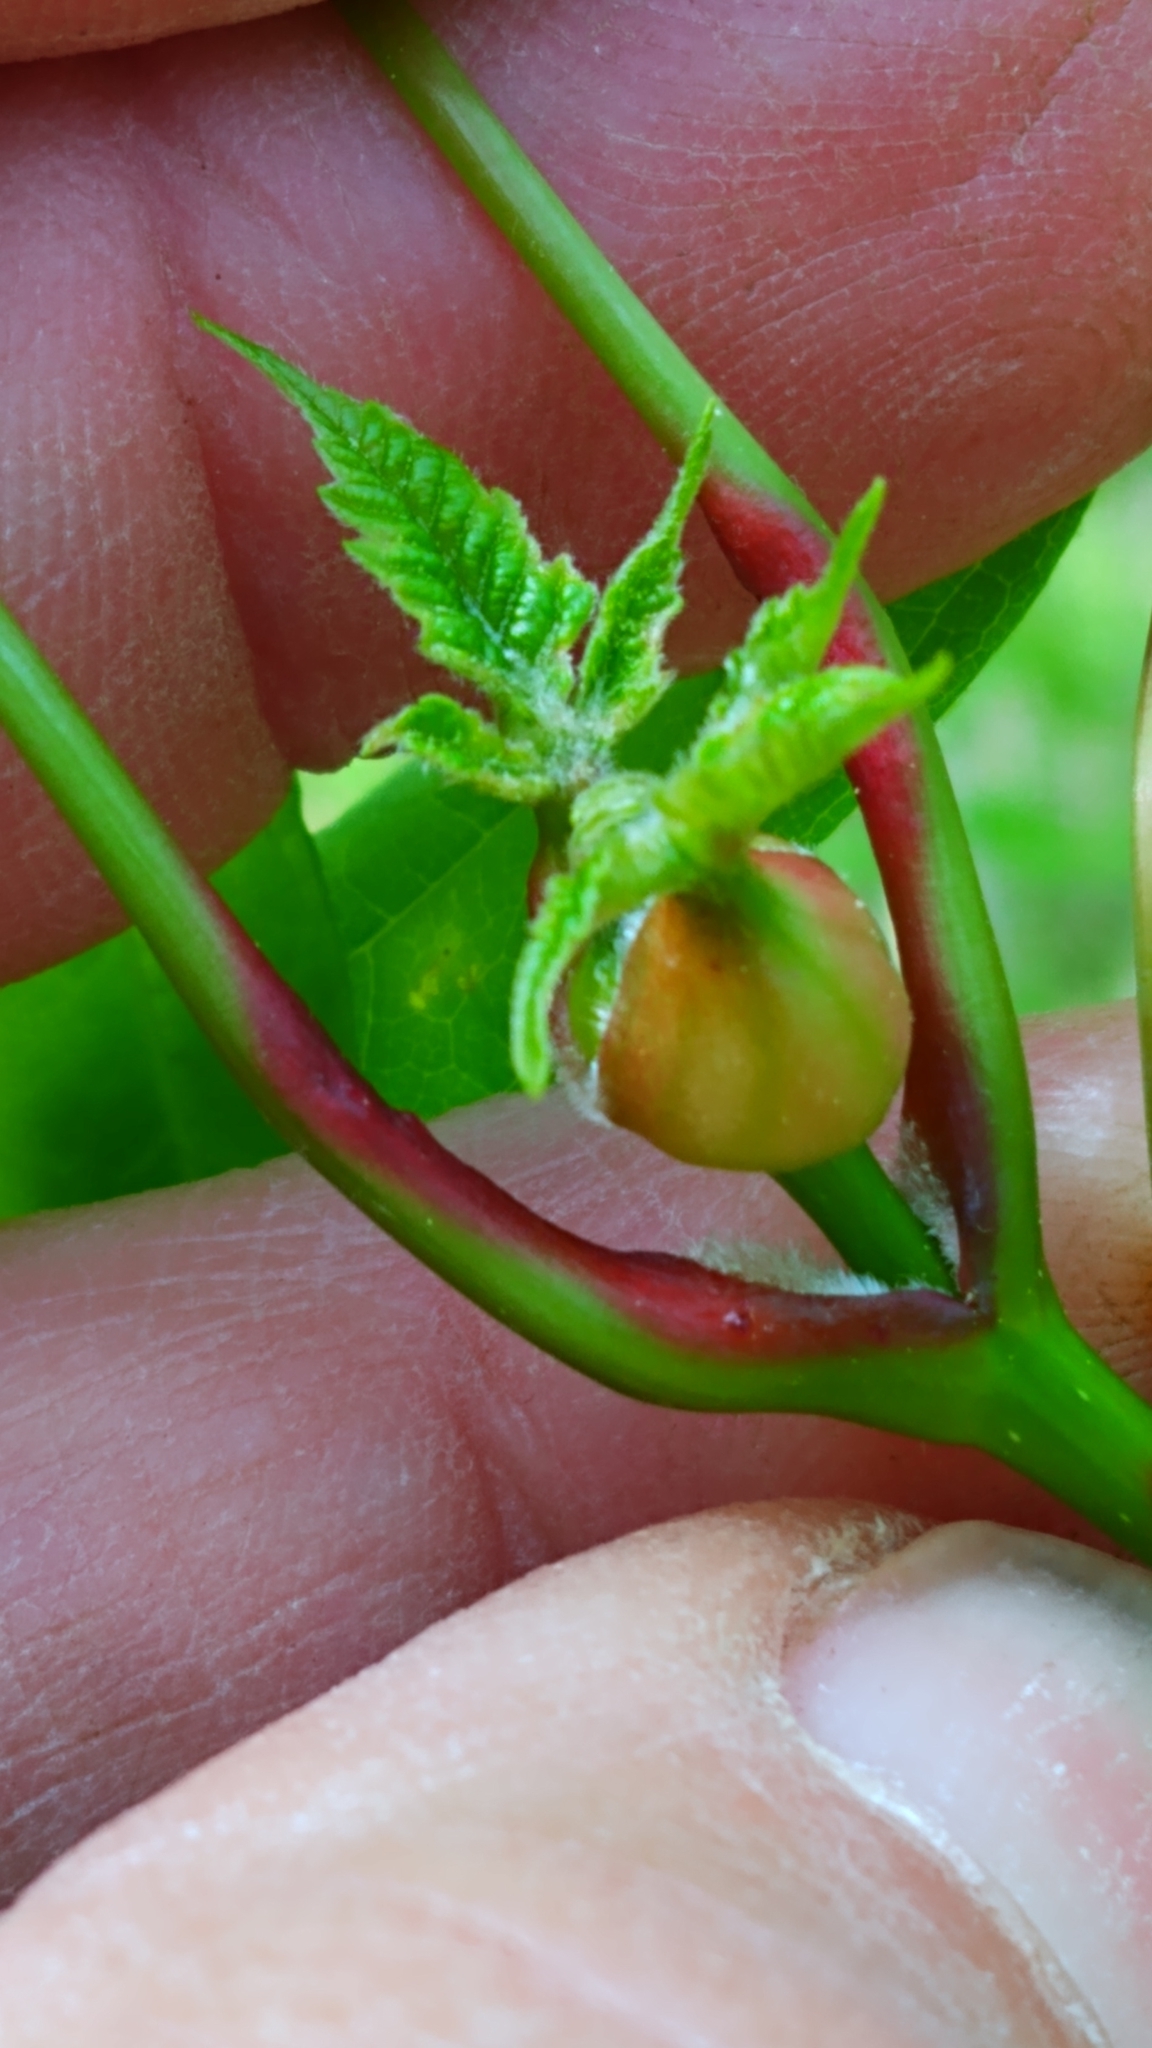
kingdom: Animalia
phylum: Arthropoda
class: Insecta
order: Diptera
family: Cecidomyiidae
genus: Contarinia
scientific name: Contarinia negundinis
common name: Boxelder budgall midge
